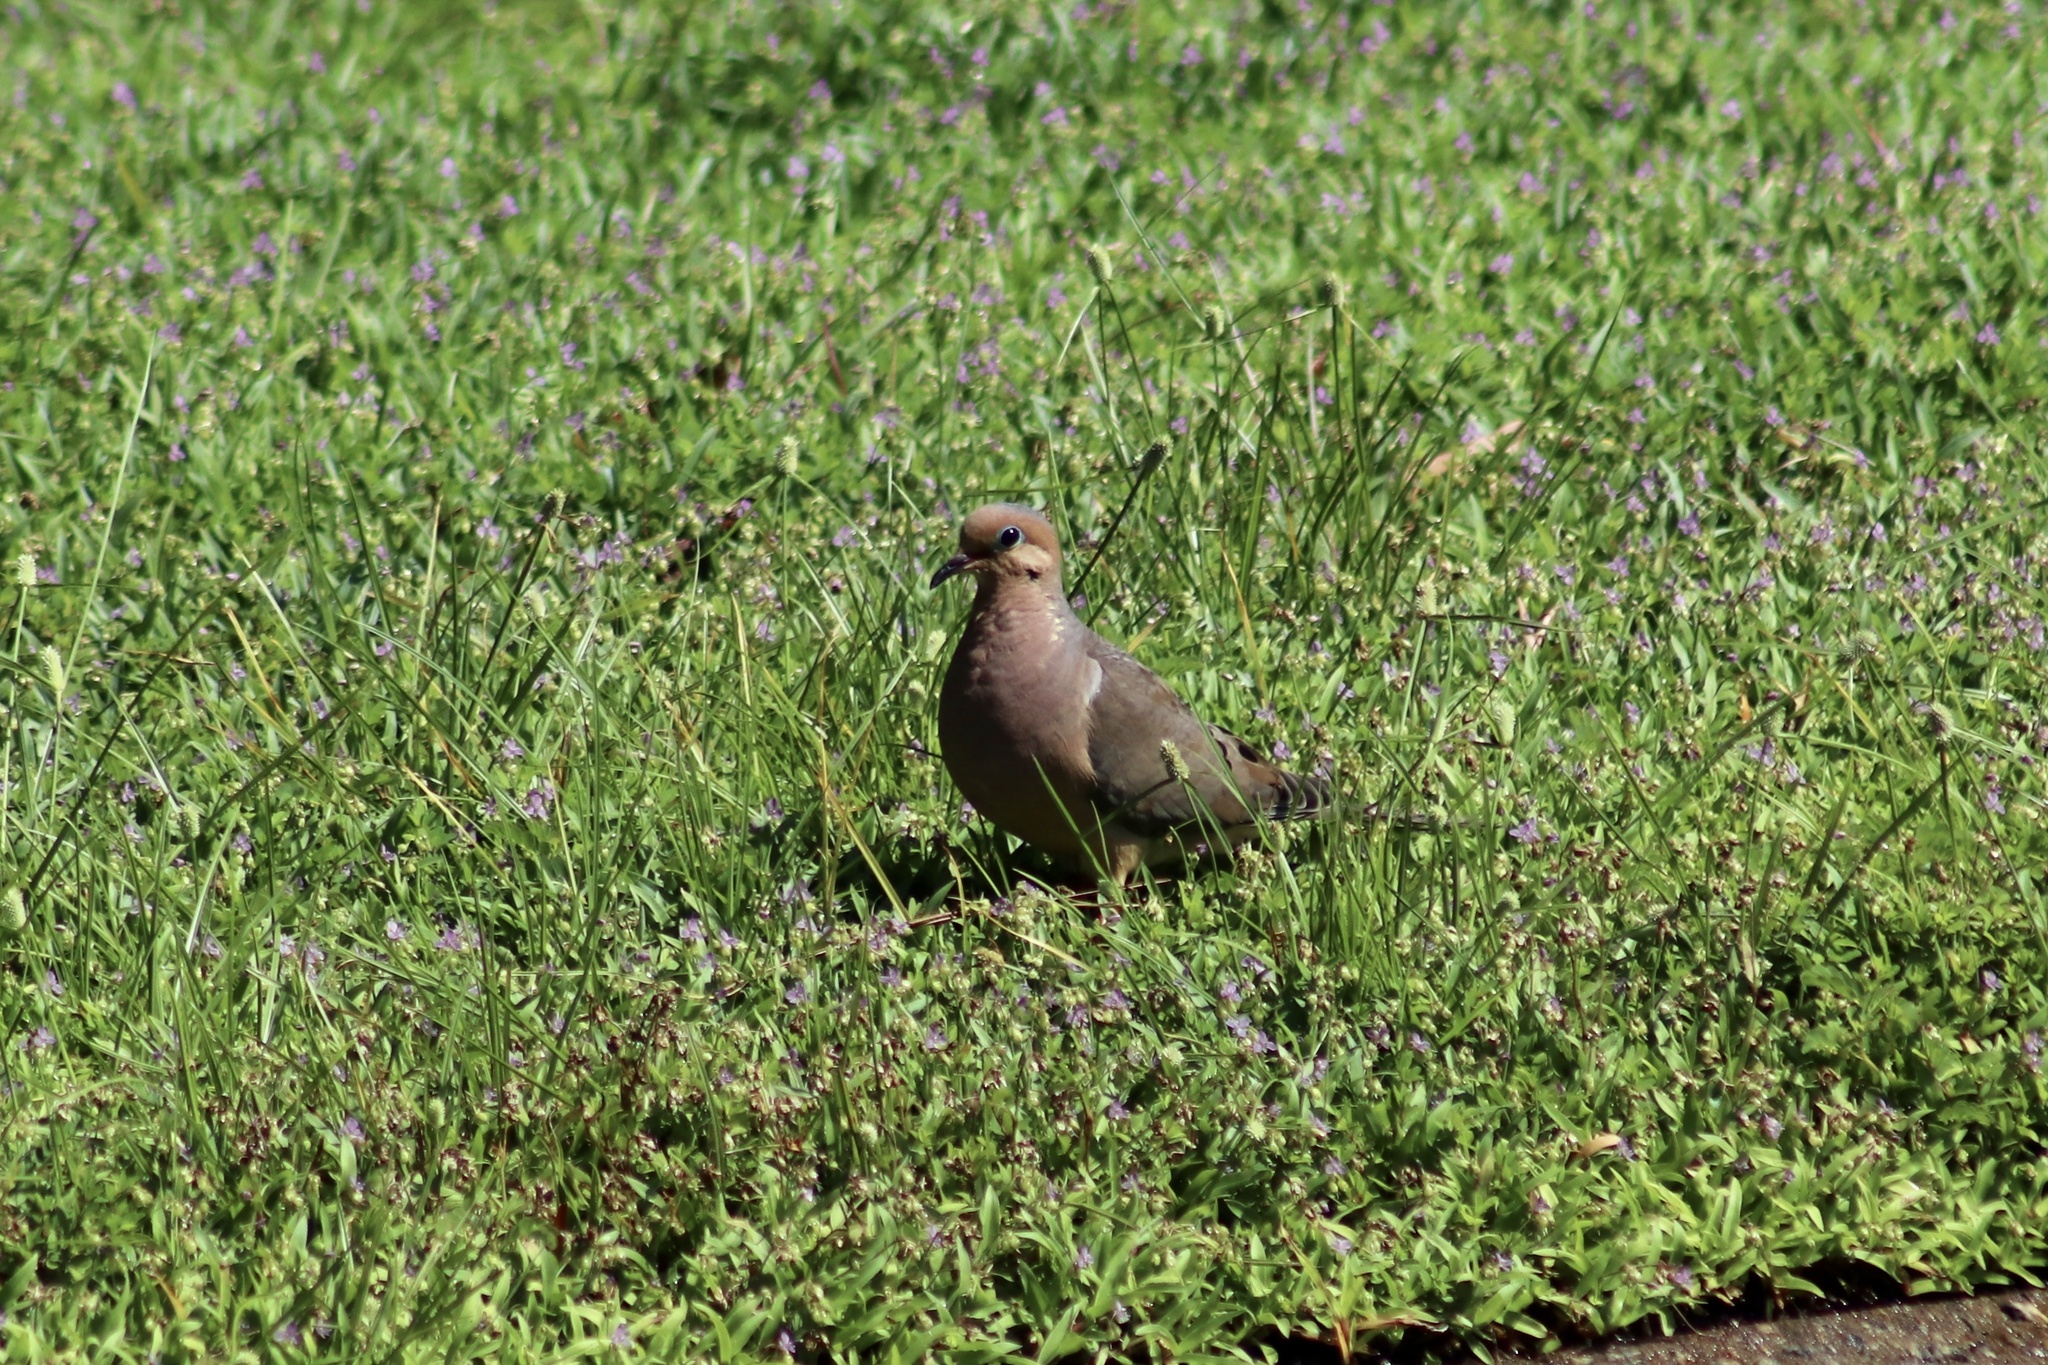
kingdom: Animalia
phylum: Chordata
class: Aves
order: Columbiformes
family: Columbidae
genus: Zenaida
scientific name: Zenaida macroura
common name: Mourning dove
